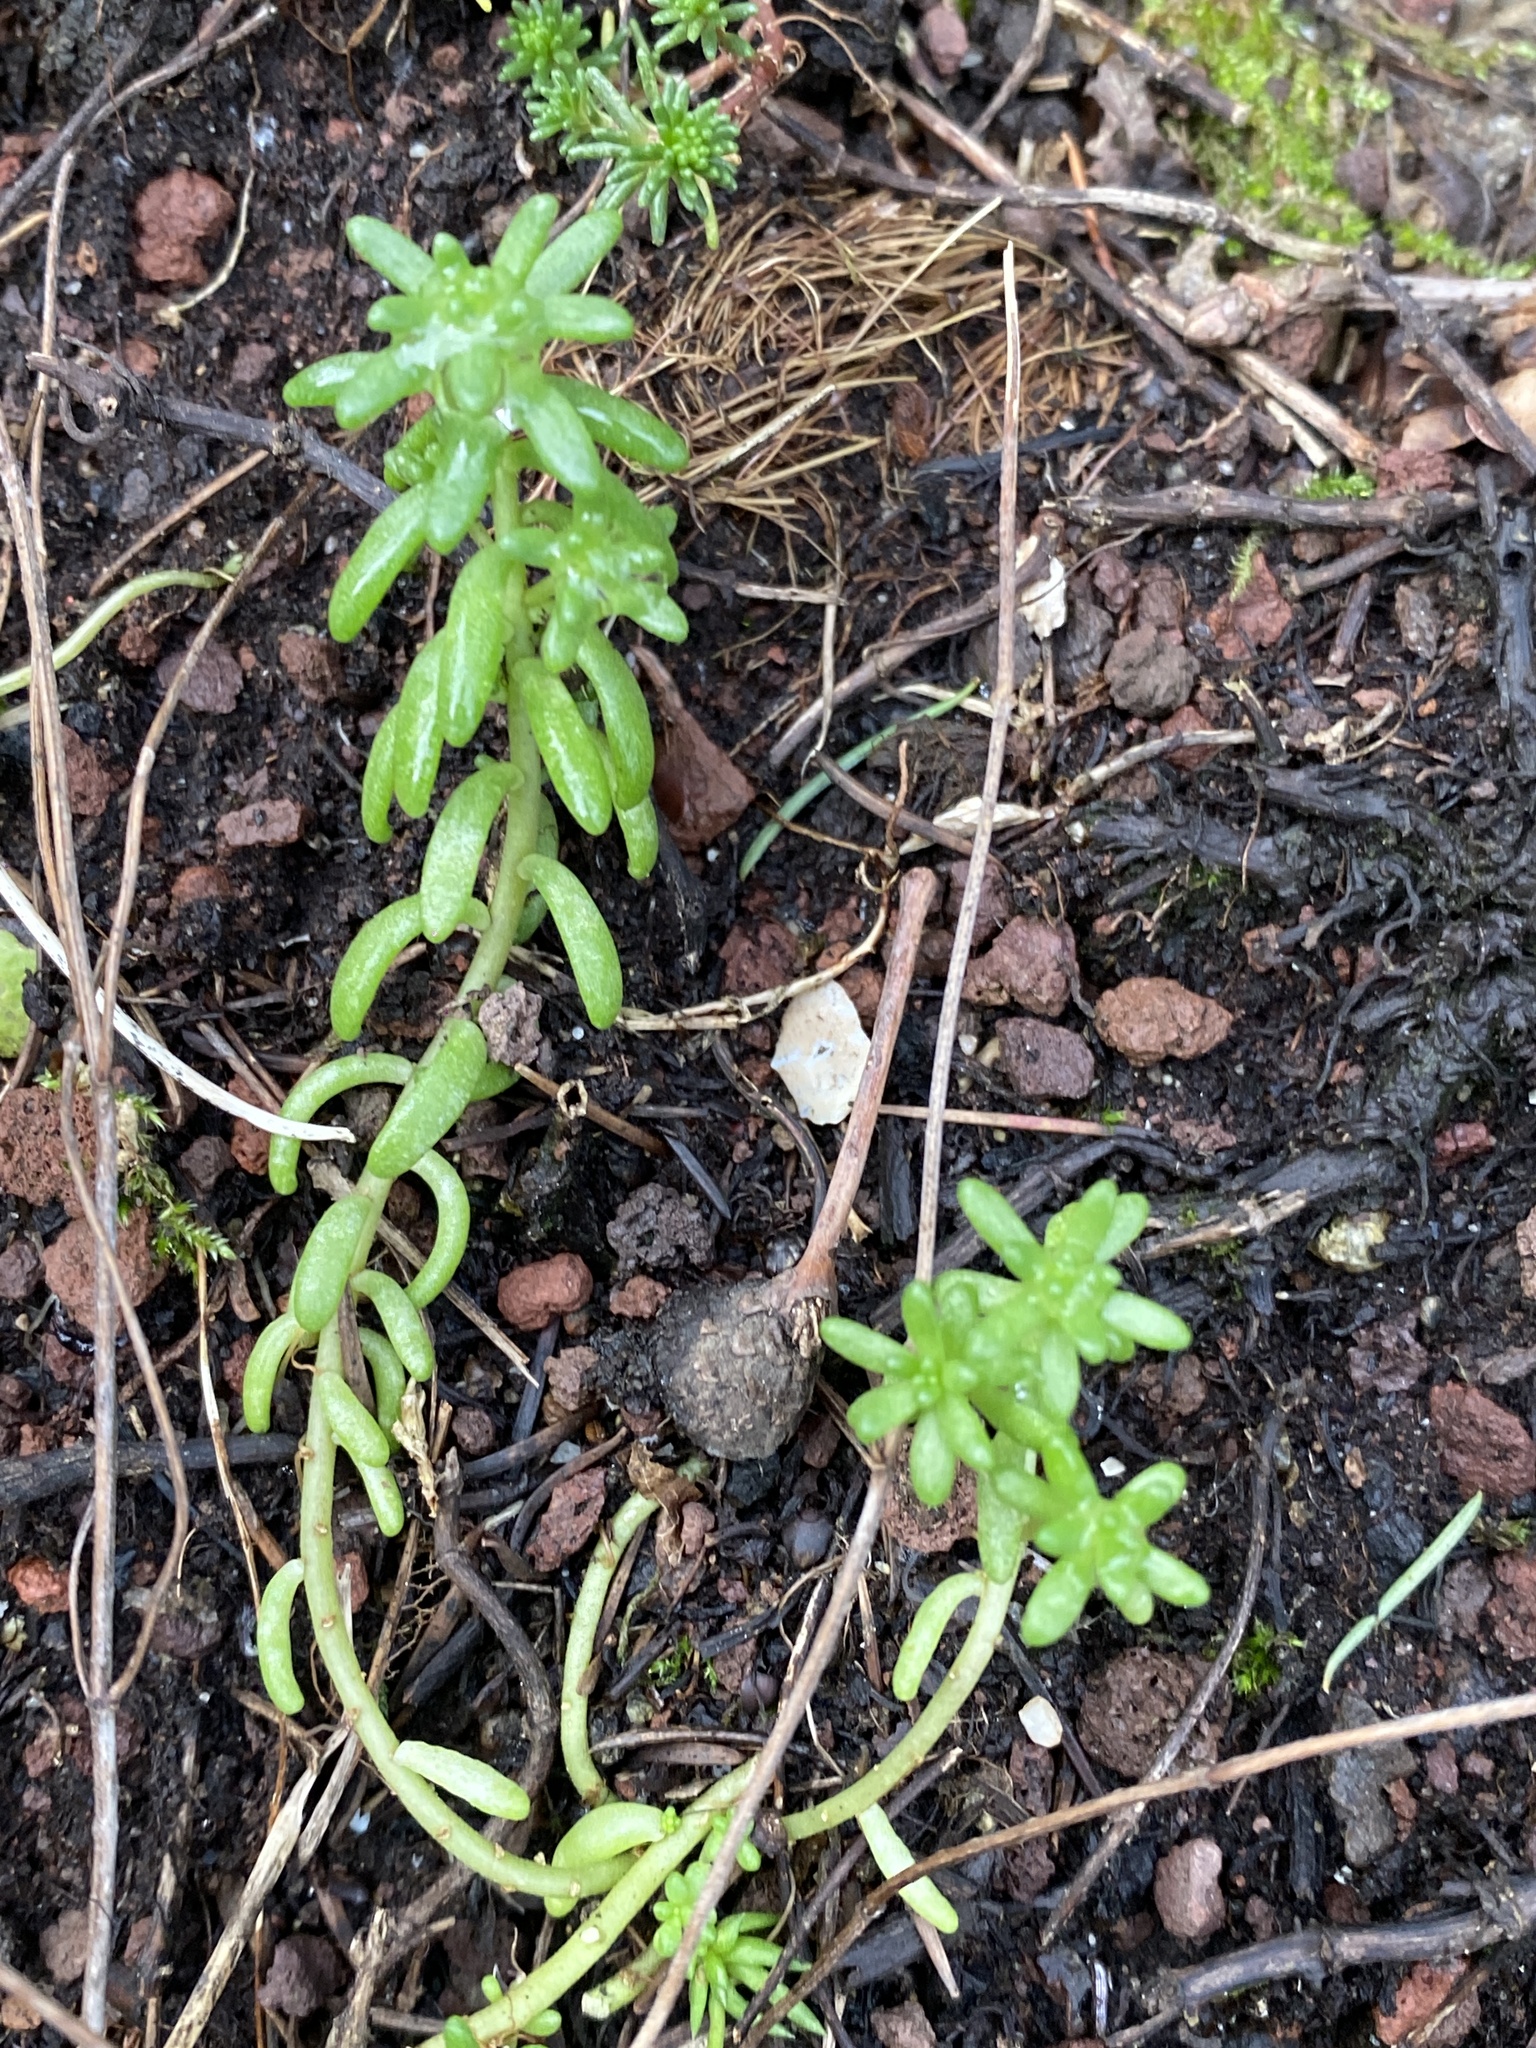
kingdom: Plantae
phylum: Tracheophyta
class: Magnoliopsida
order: Saxifragales
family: Crassulaceae
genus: Sedum
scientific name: Sedum album
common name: White stonecrop
